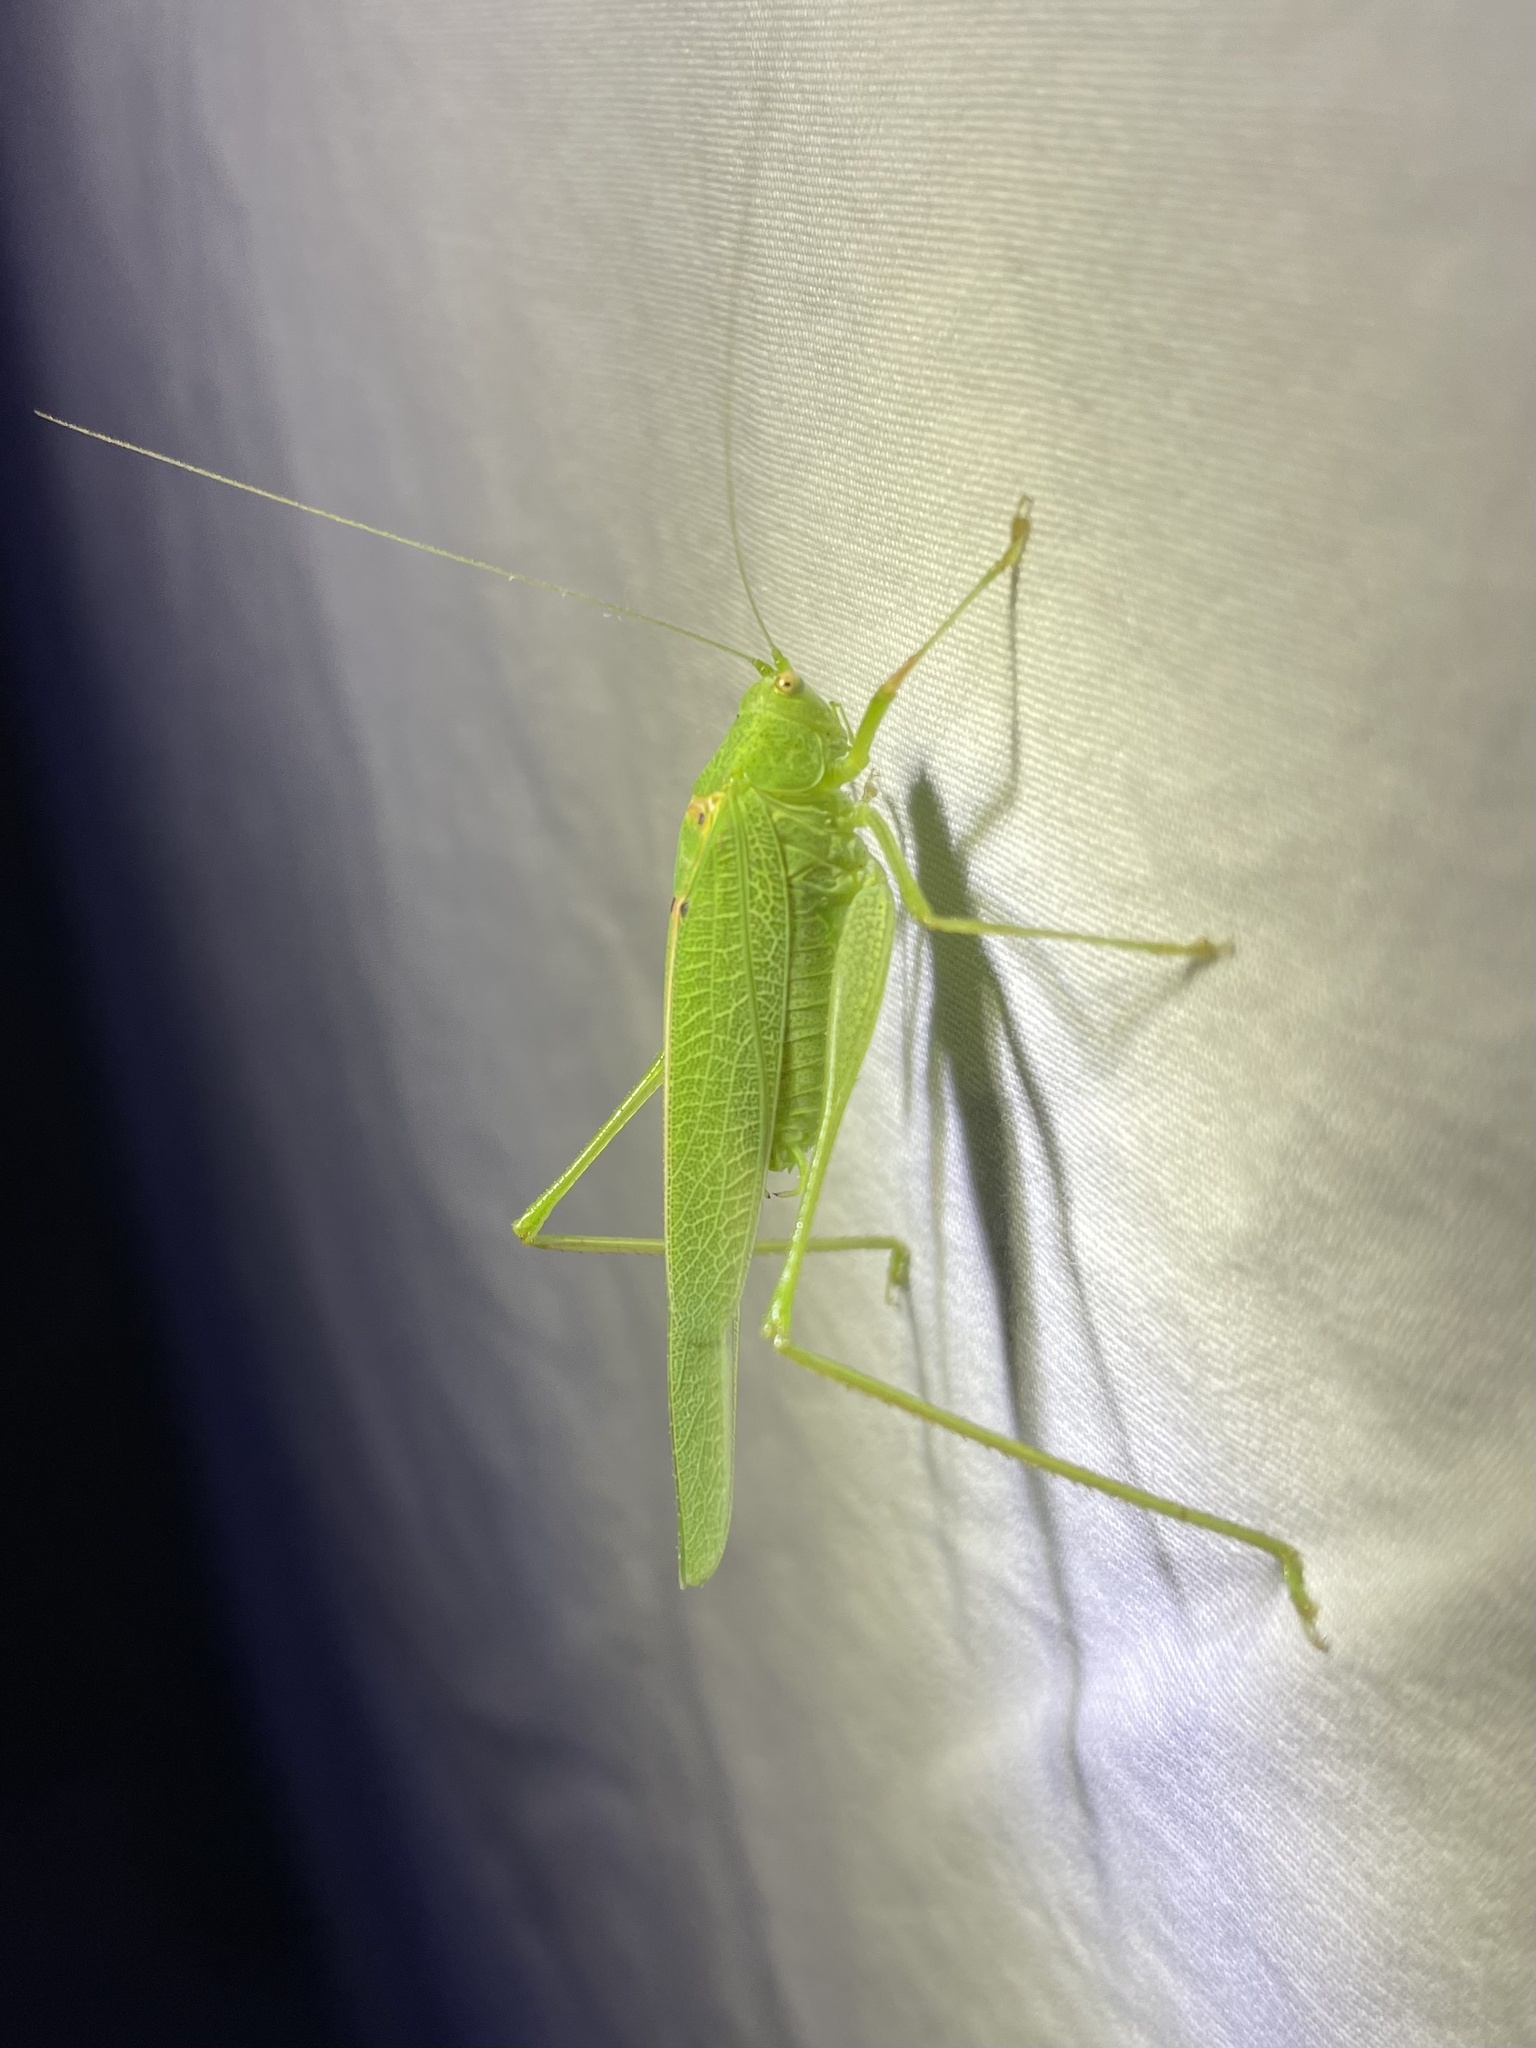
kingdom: Animalia
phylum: Arthropoda
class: Insecta
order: Orthoptera
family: Tettigoniidae
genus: Phaneroptera
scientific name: Phaneroptera nana
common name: Southern sickle bush-cricket
